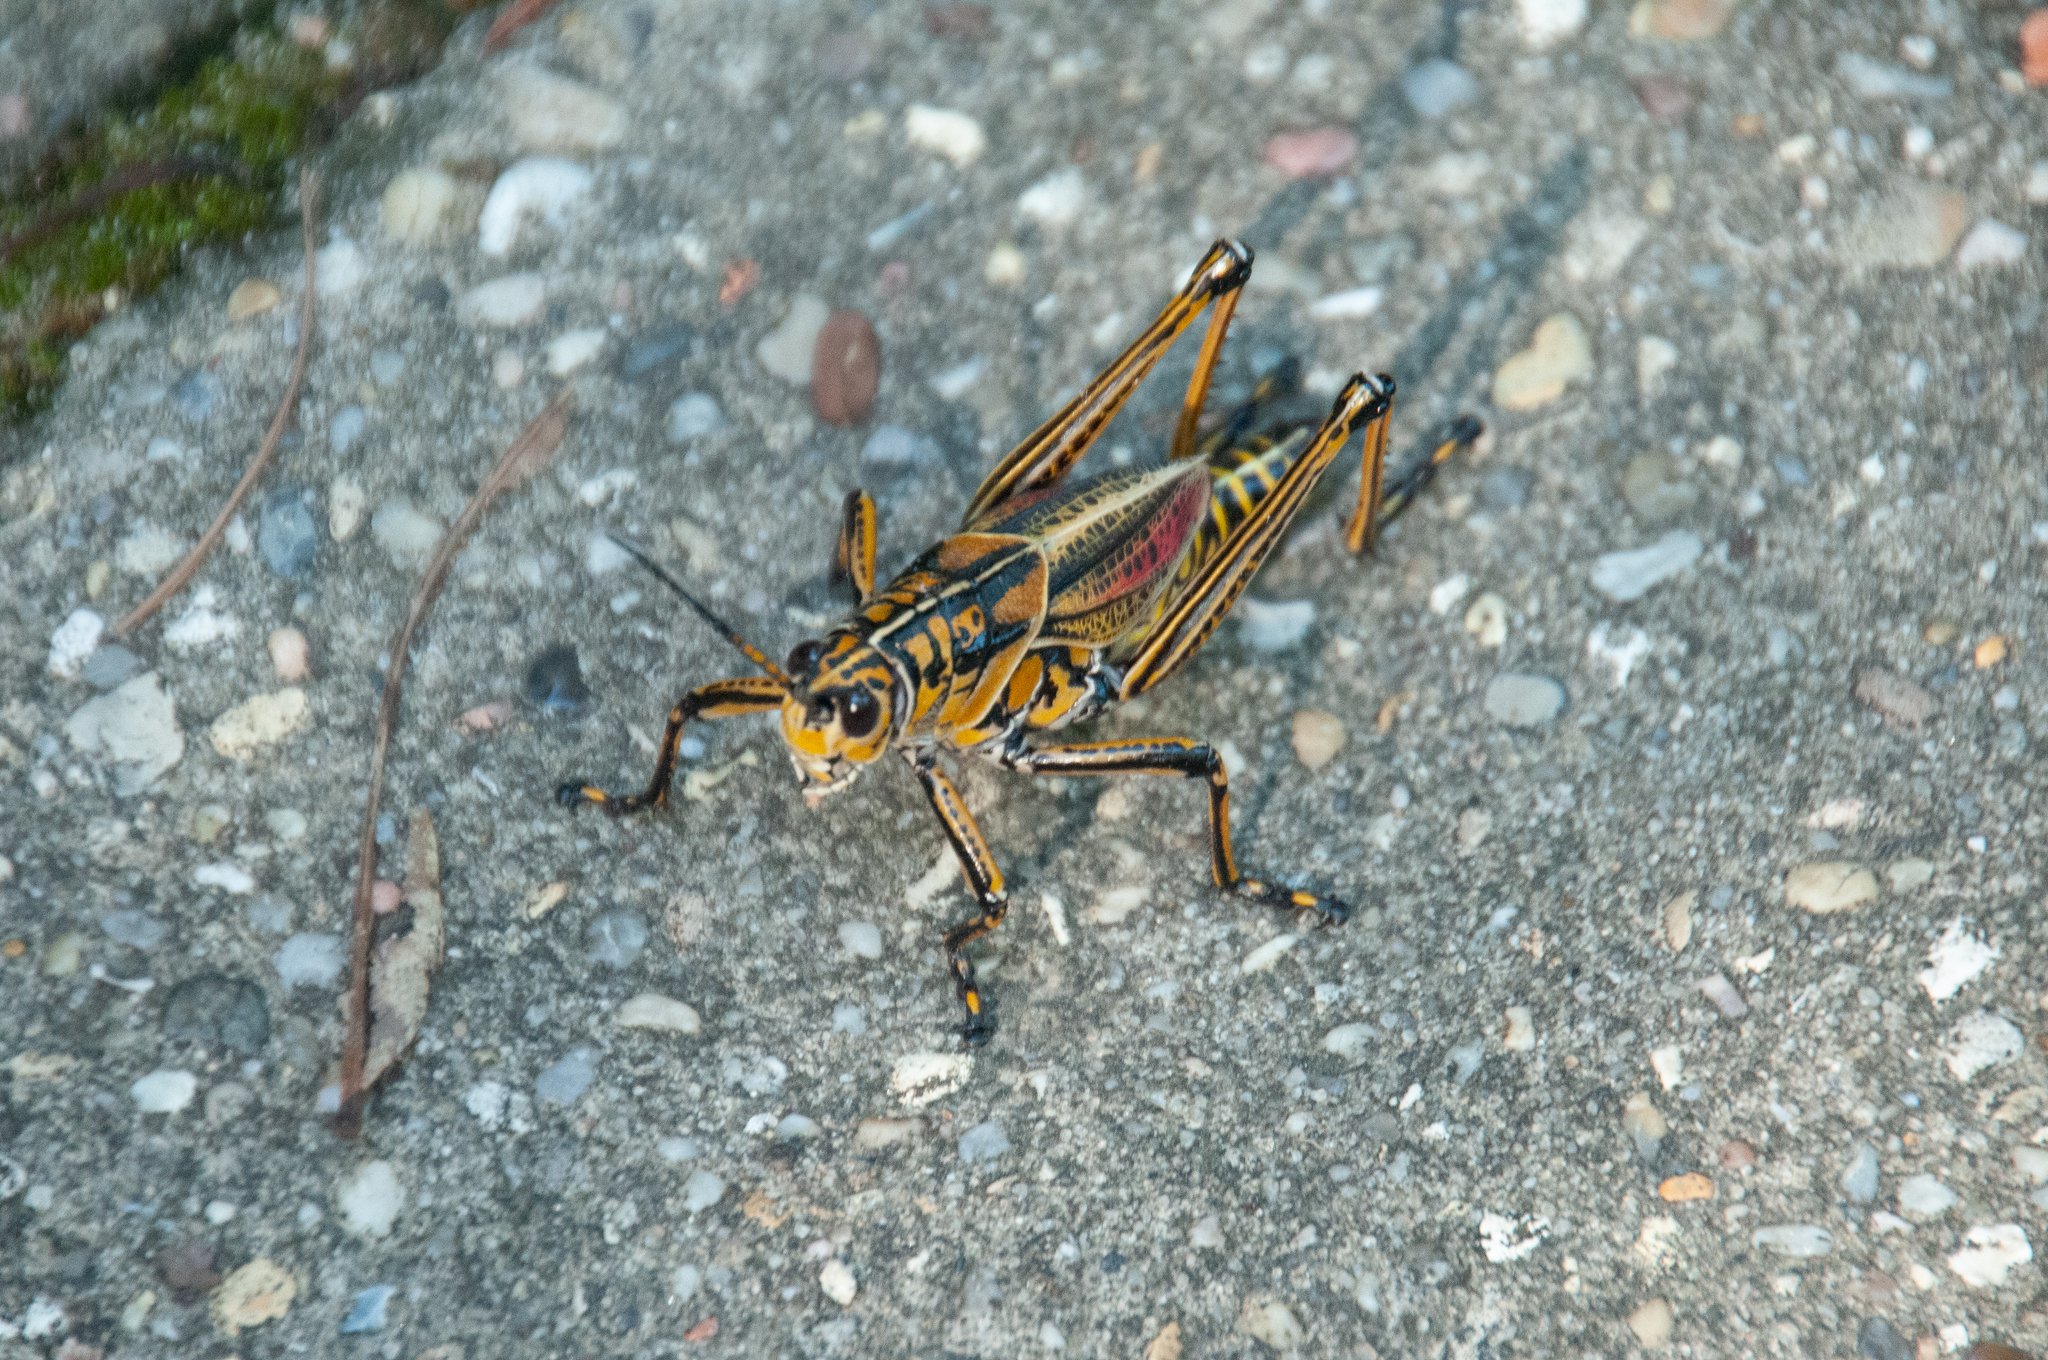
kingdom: Animalia
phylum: Arthropoda
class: Insecta
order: Orthoptera
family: Romaleidae
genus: Romalea
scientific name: Romalea microptera
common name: Eastern lubber grasshopper
